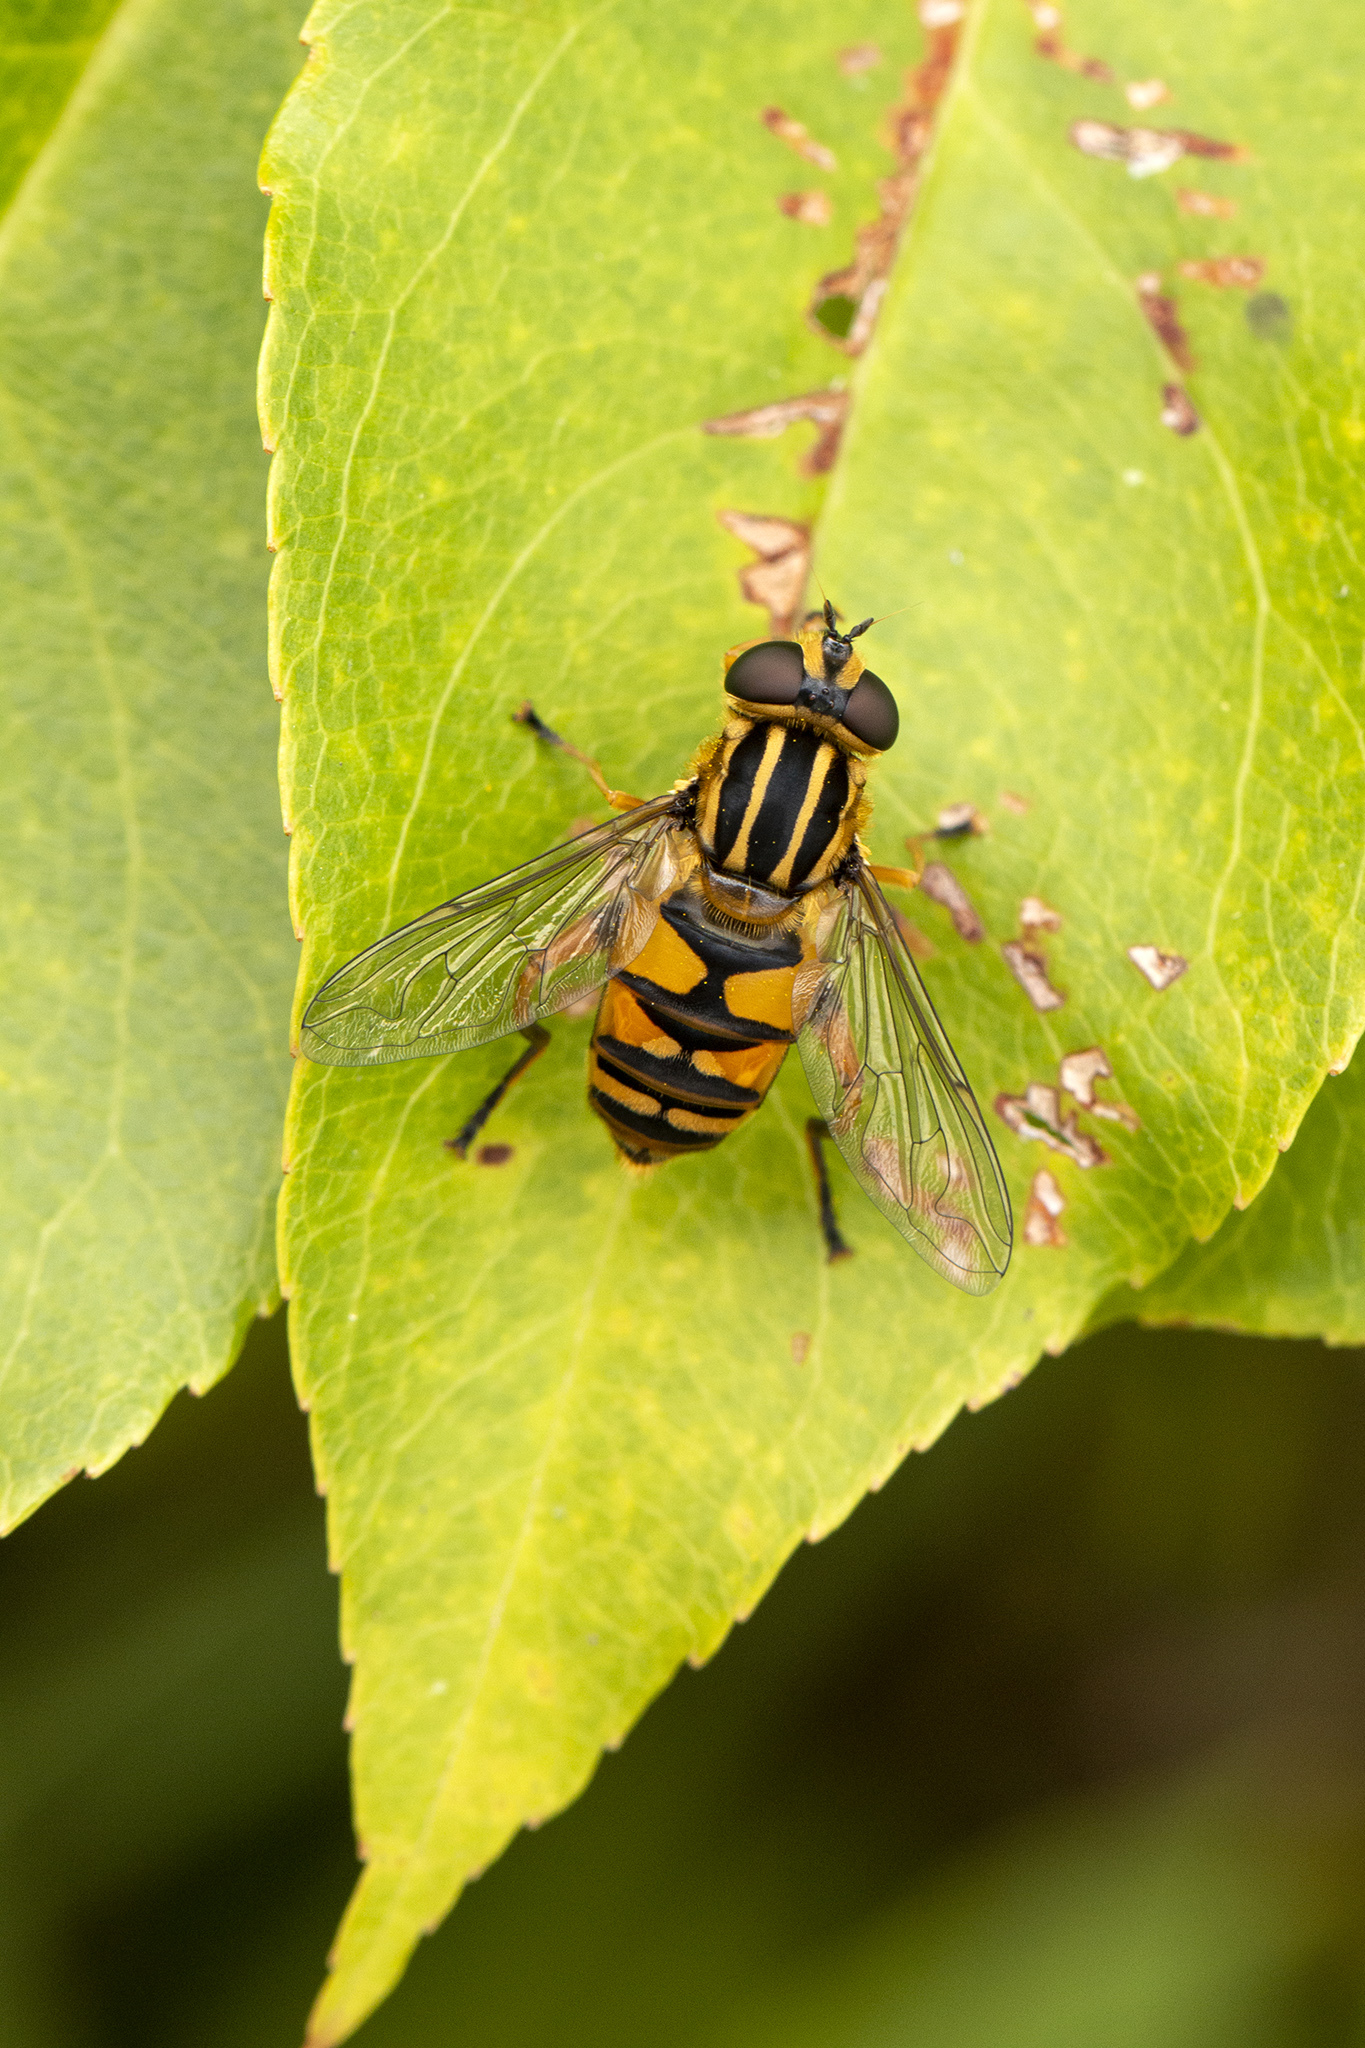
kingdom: Animalia
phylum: Arthropoda
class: Insecta
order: Diptera
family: Syrphidae
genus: Helophilus
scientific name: Helophilus pendulus
